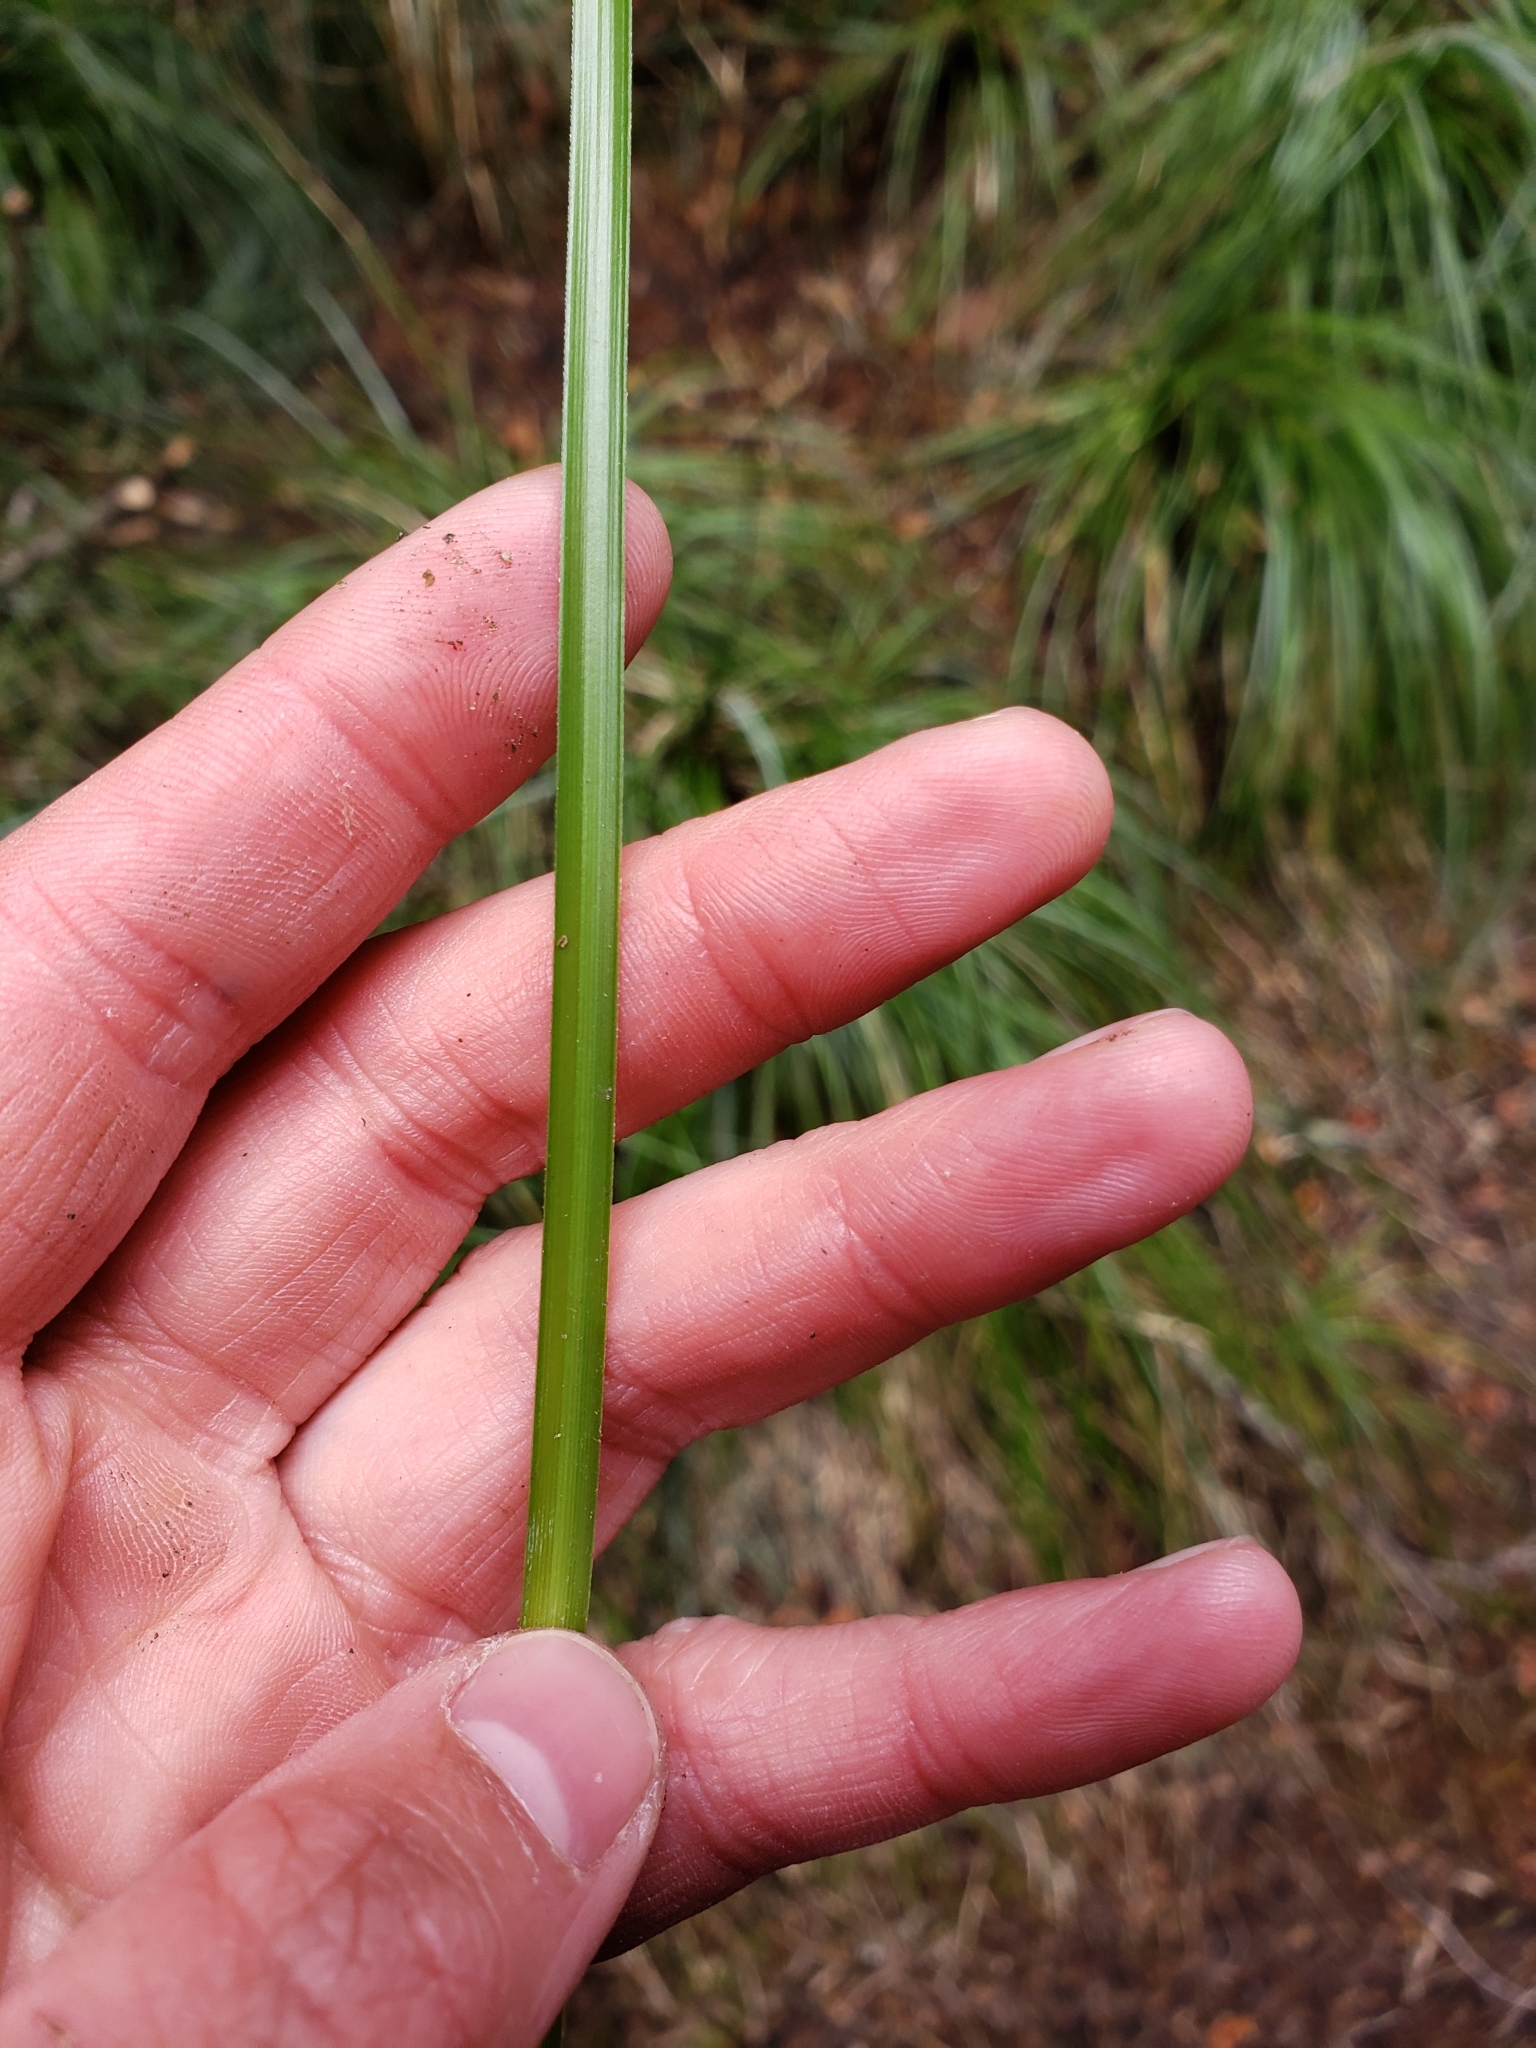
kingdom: Plantae
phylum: Tracheophyta
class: Liliopsida
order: Liliales
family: Melanthiaceae
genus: Xerophyllum
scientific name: Xerophyllum tenax
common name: Bear-grass
